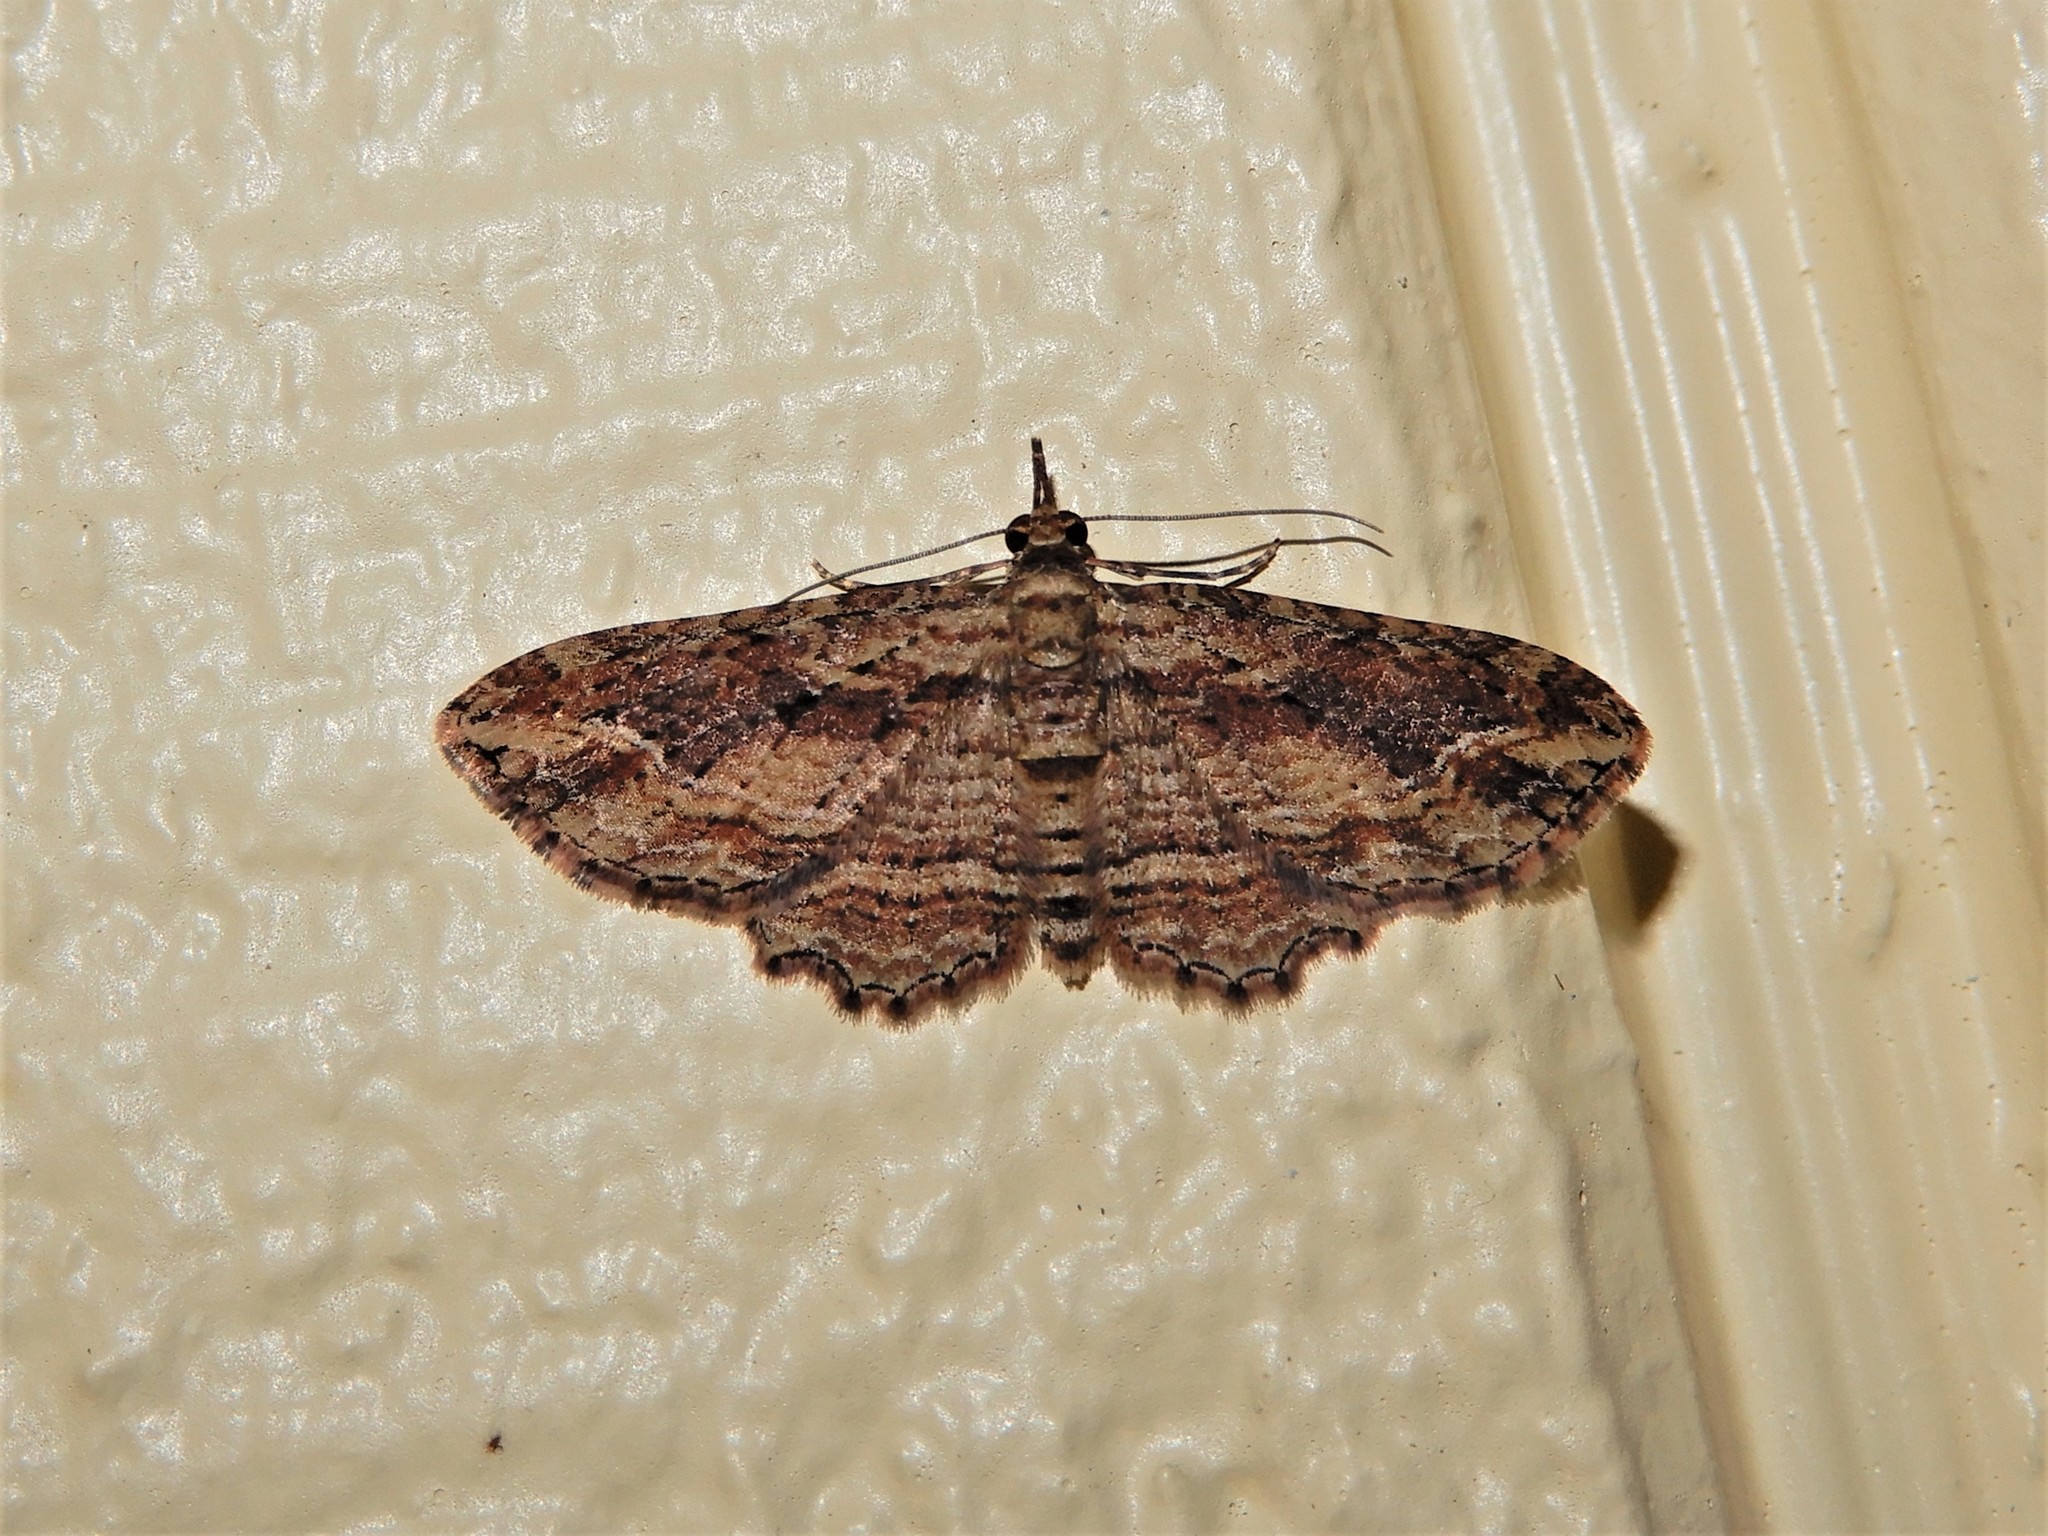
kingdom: Animalia
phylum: Arthropoda
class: Insecta
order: Lepidoptera
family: Geometridae
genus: Chloroclystis
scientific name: Chloroclystis filata
